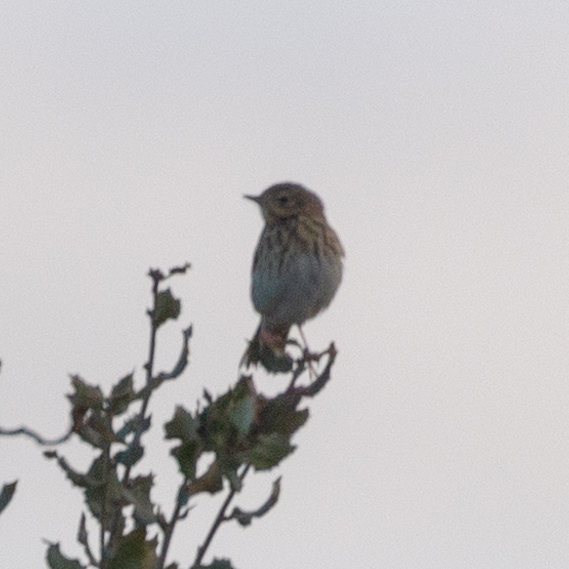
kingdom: Animalia
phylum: Chordata
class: Aves
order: Passeriformes
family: Motacillidae
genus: Anthus
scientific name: Anthus trivialis
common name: Tree pipit
